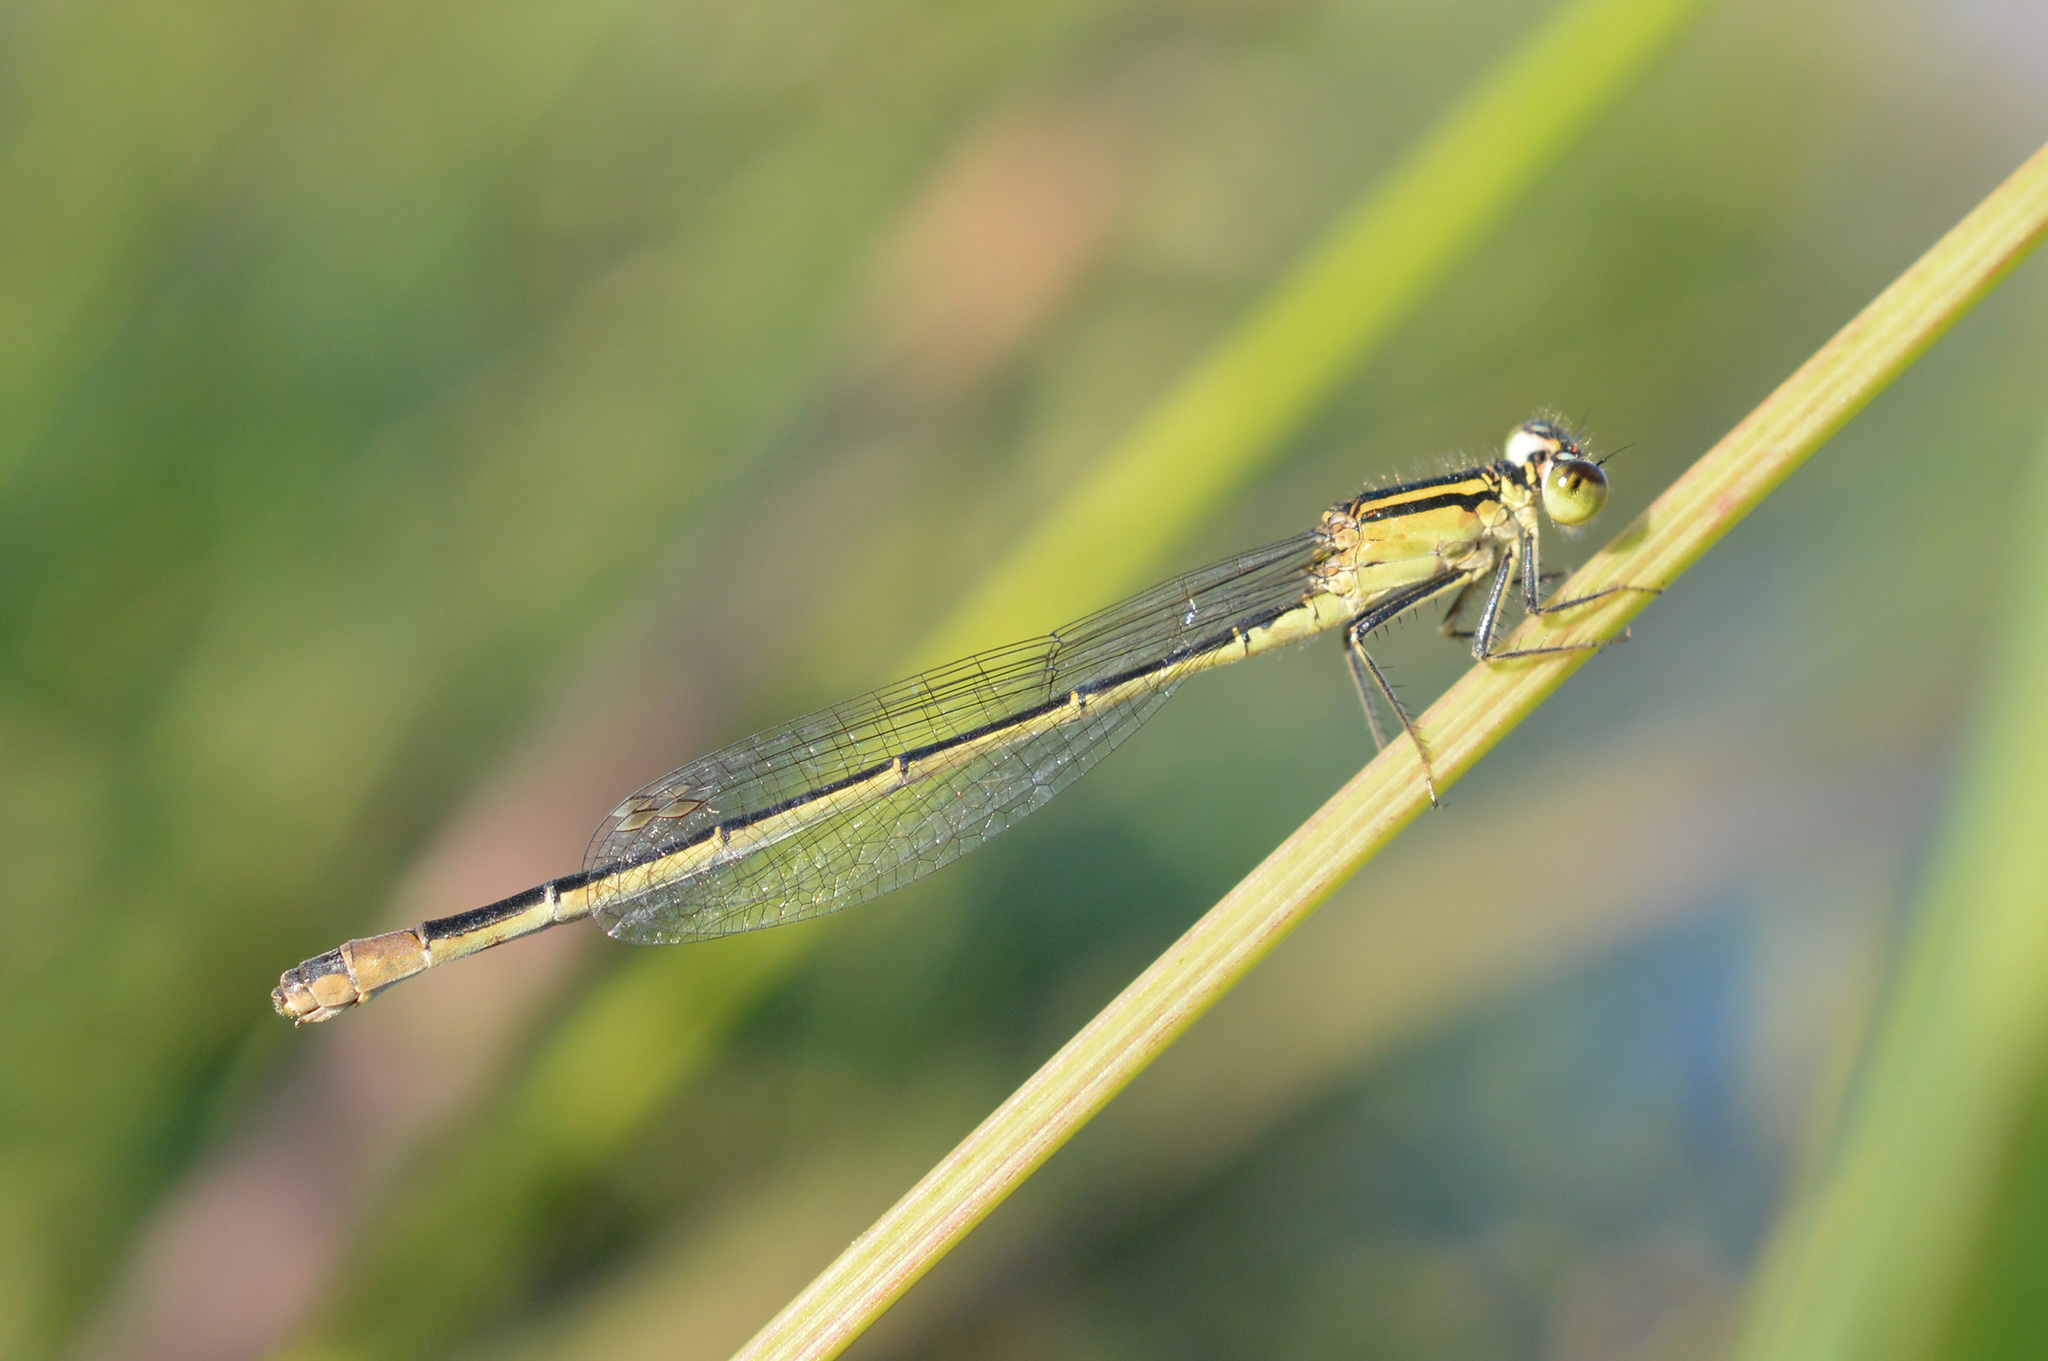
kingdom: Animalia
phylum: Arthropoda
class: Insecta
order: Odonata
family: Coenagrionidae
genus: Ischnura
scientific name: Ischnura elegans
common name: Blue-tailed damselfly
